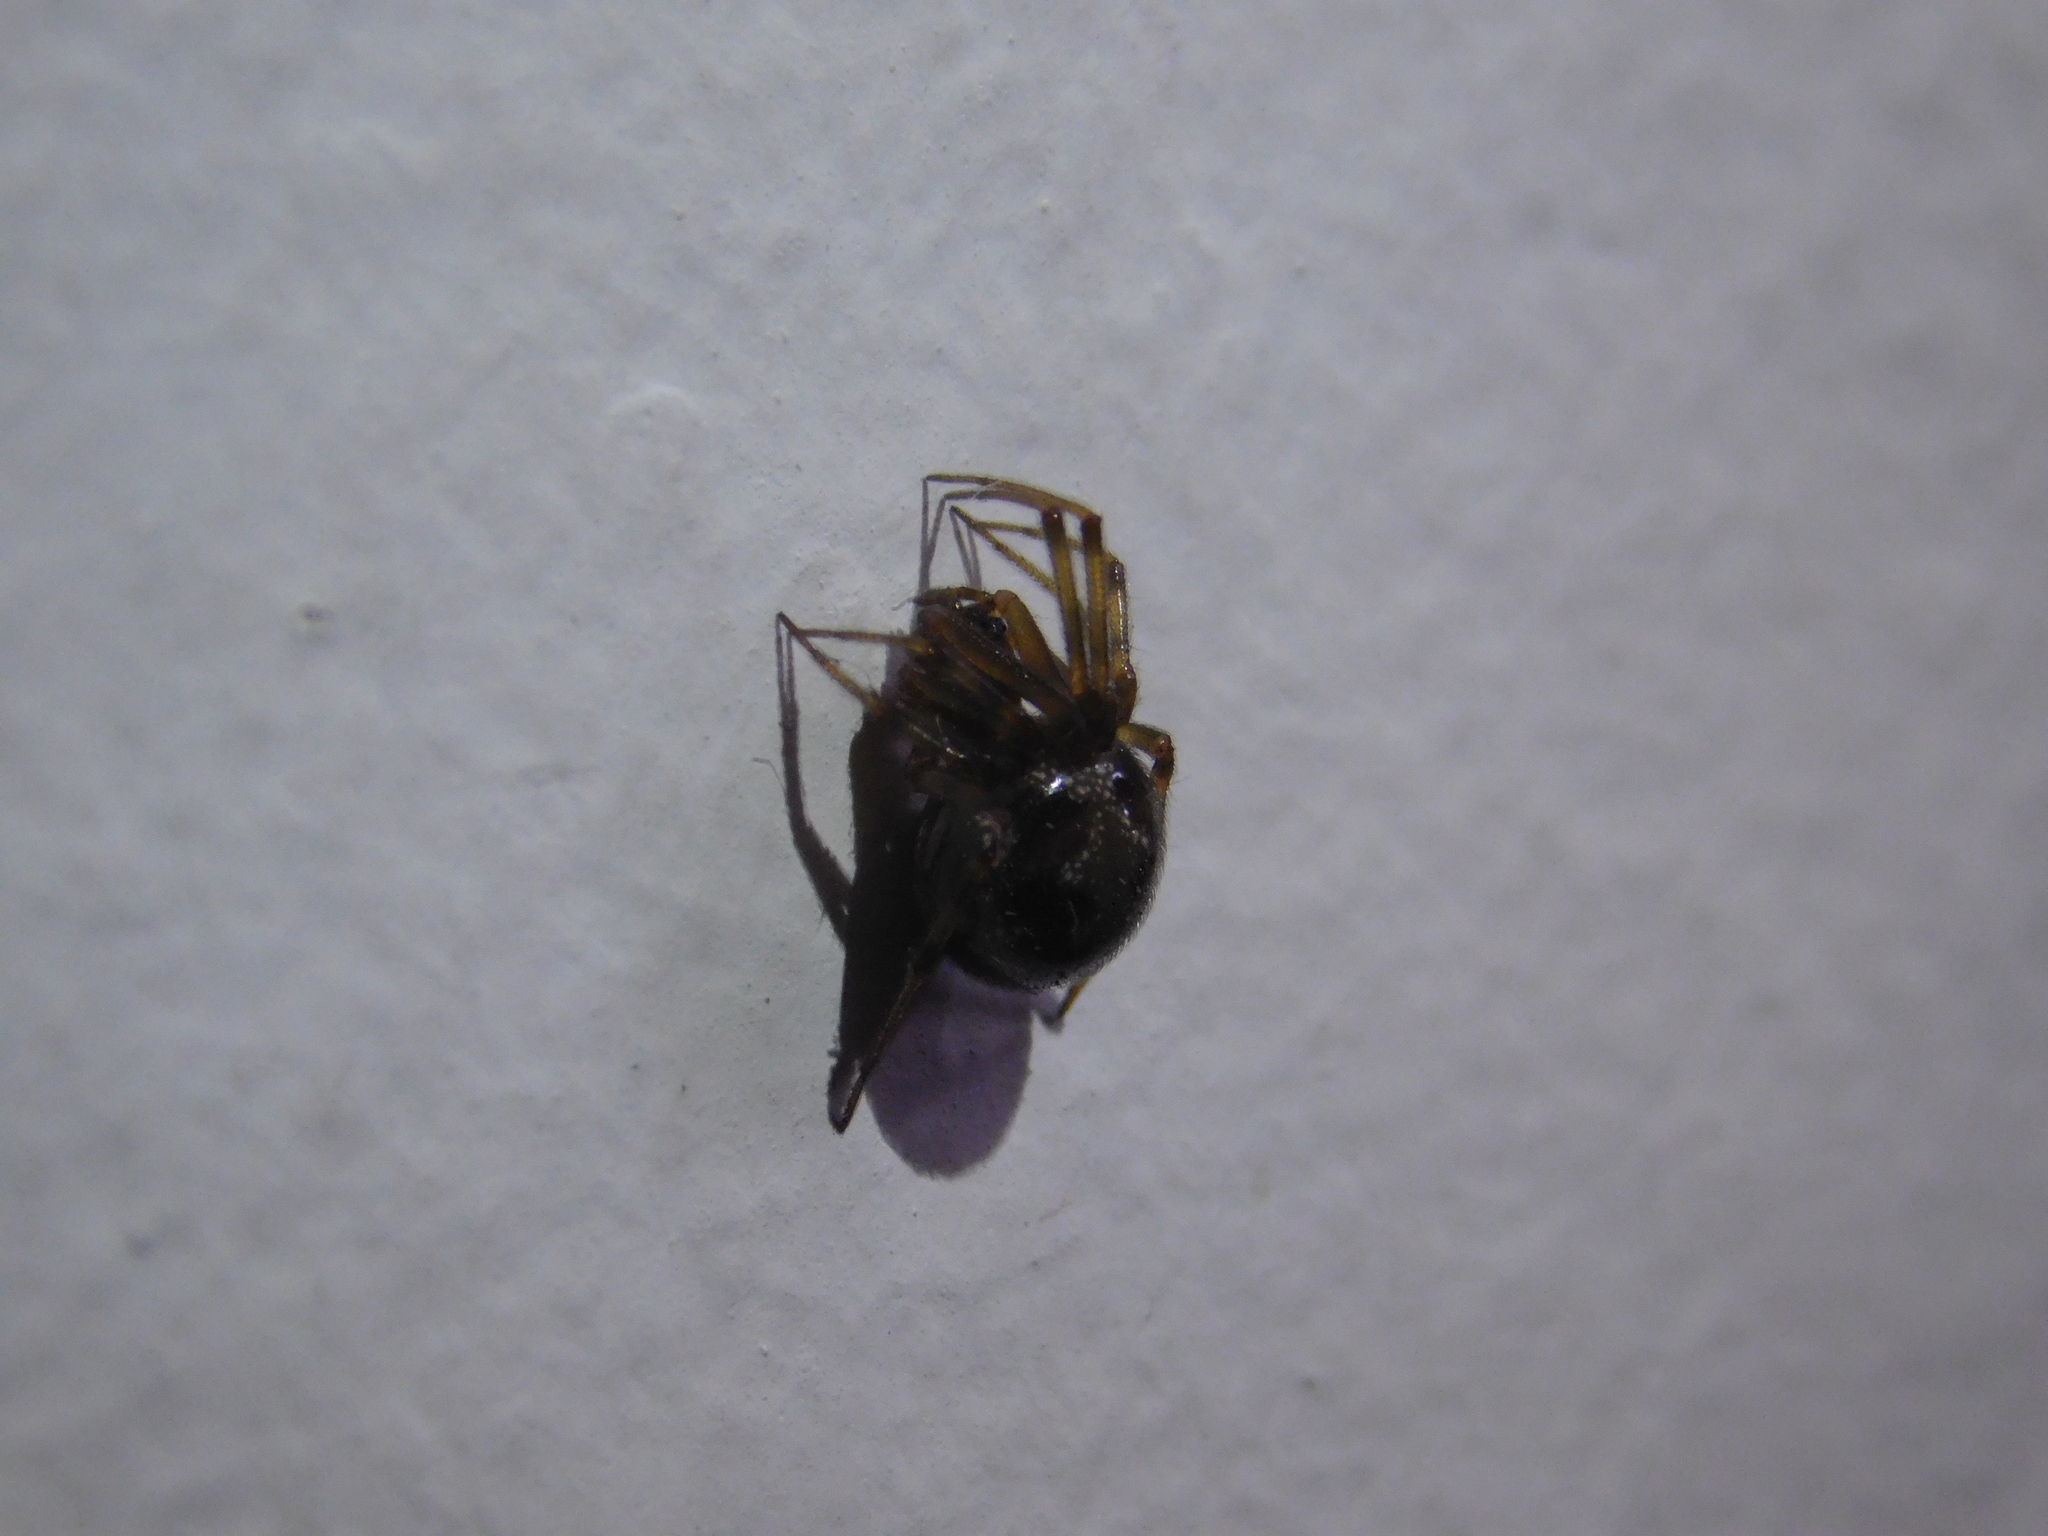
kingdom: Animalia
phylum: Arthropoda
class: Arachnida
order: Araneae
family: Theridiidae
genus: Steatoda
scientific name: Steatoda triangulosa
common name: Triangulate bud spider
